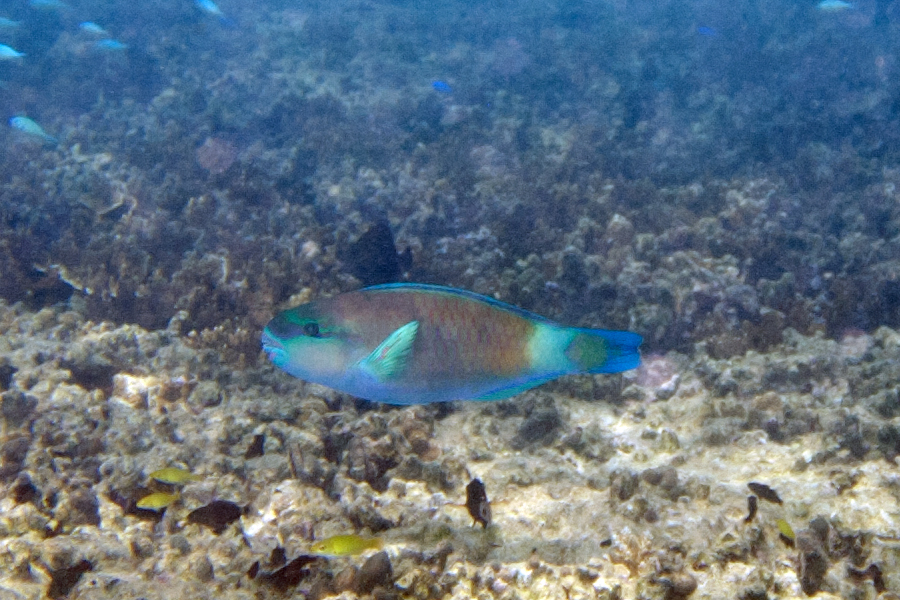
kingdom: Animalia
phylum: Chordata
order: Perciformes
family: Scaridae
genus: Chlorurus
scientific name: Chlorurus spilurus
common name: Bullethead parrotfish
